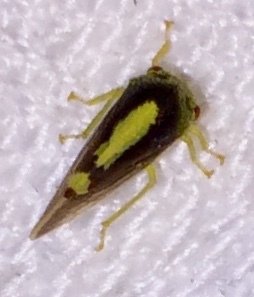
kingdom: Animalia
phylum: Arthropoda
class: Insecta
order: Hemiptera
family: Membracidae
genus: Atymna
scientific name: Atymna querci
